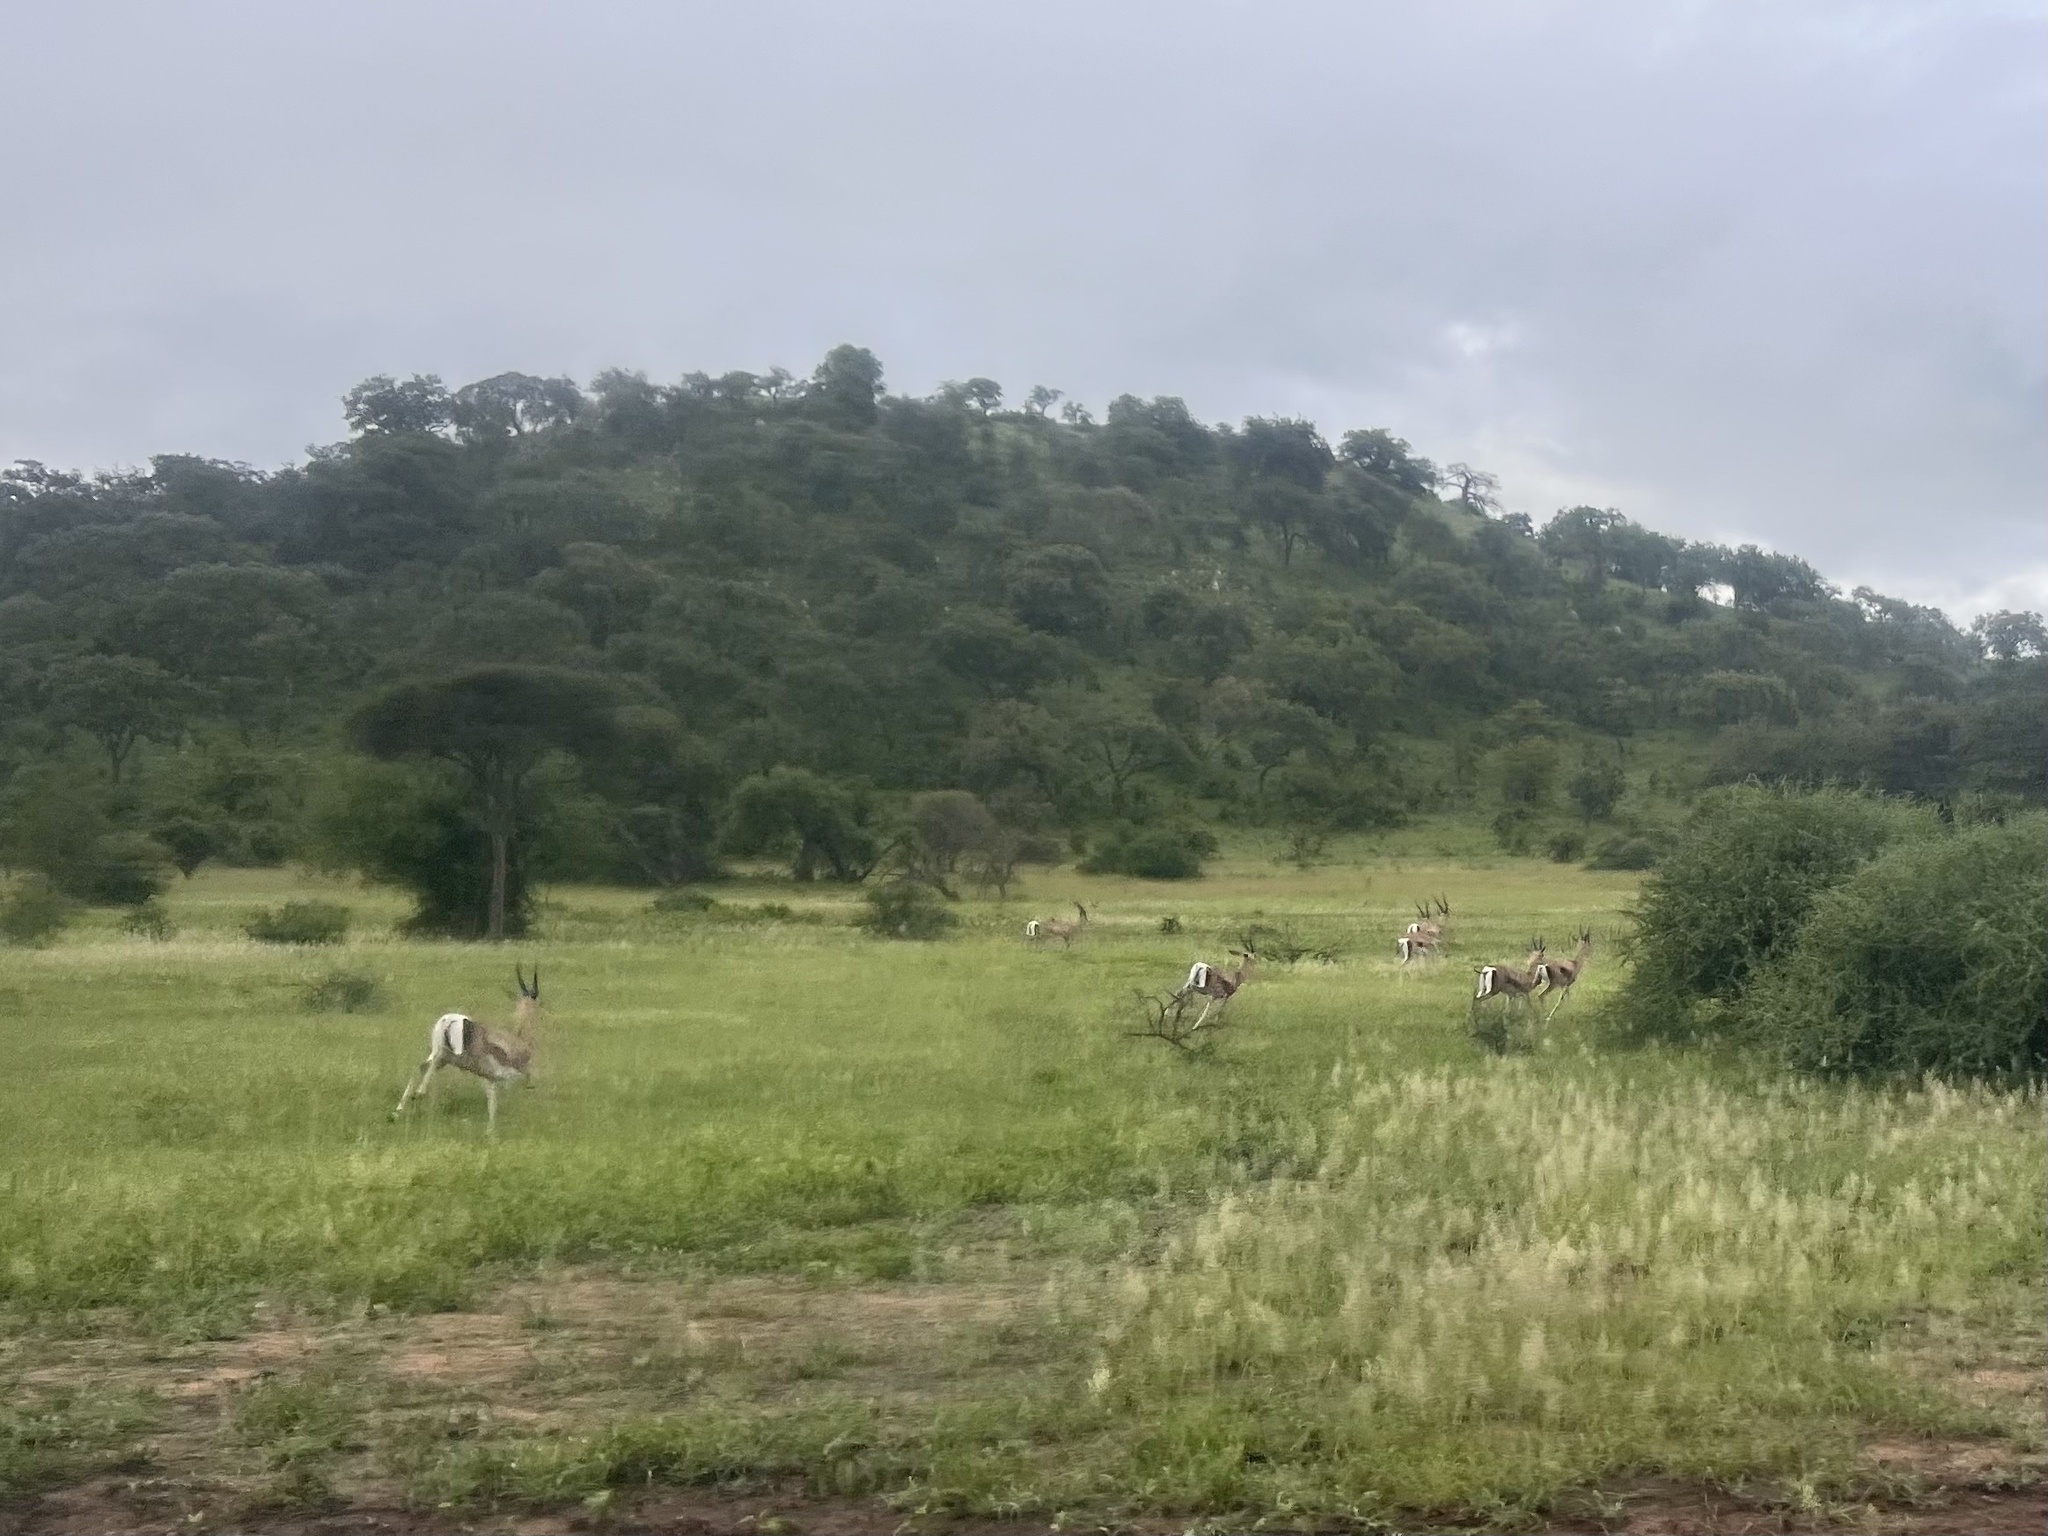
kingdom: Animalia
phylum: Chordata
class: Mammalia
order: Artiodactyla
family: Bovidae
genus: Nanger
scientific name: Nanger granti
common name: Grant's gazelle
